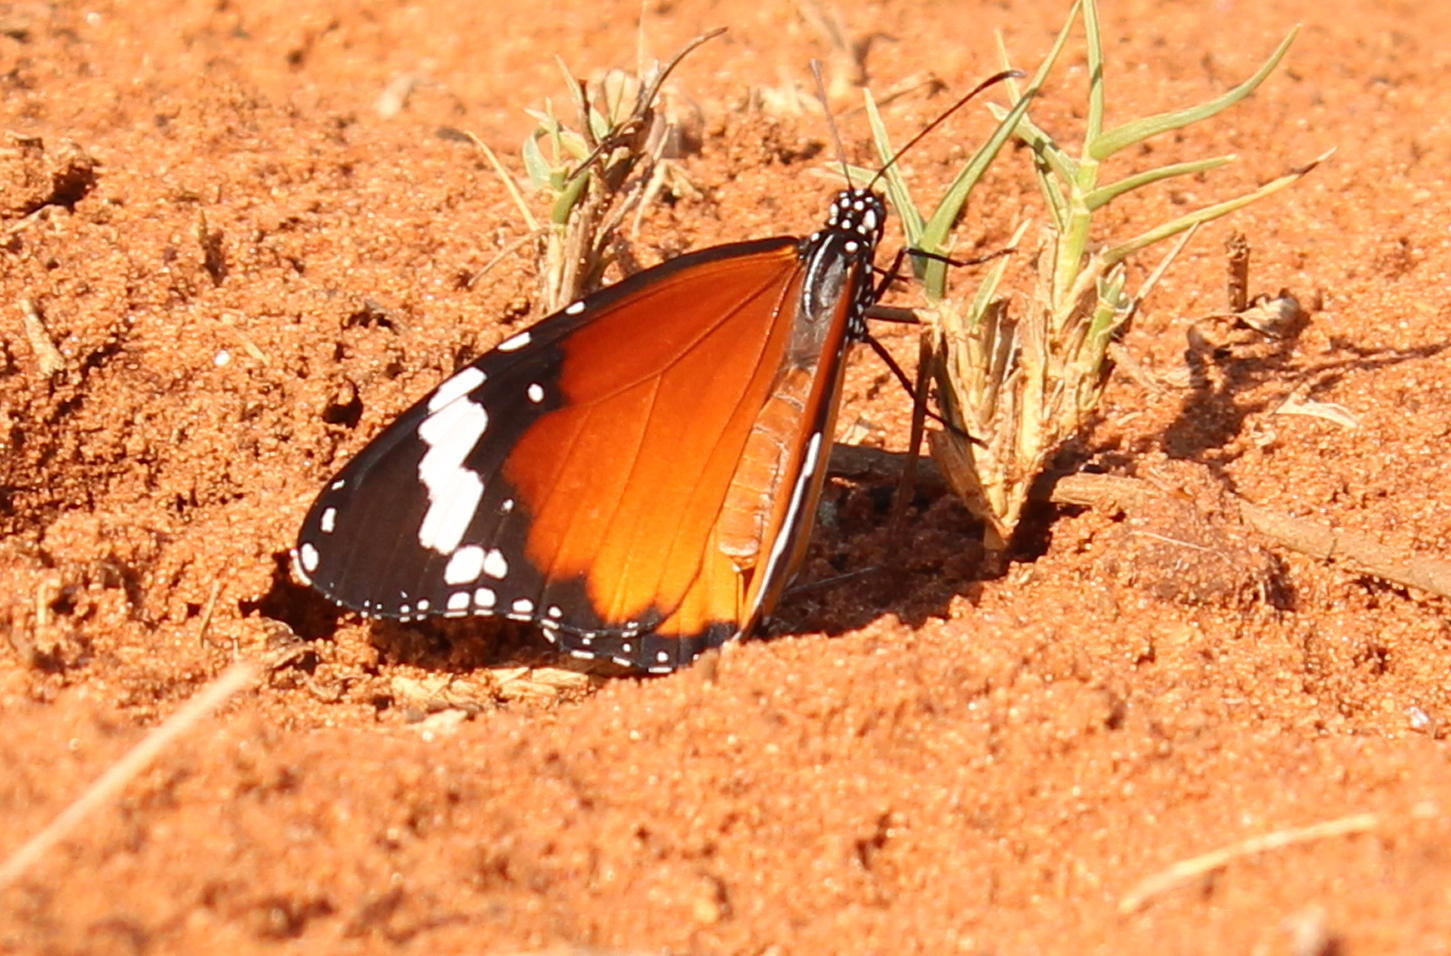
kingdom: Animalia
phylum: Arthropoda
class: Insecta
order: Lepidoptera
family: Nymphalidae
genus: Danaus
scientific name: Danaus chrysippus
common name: Plain tiger
